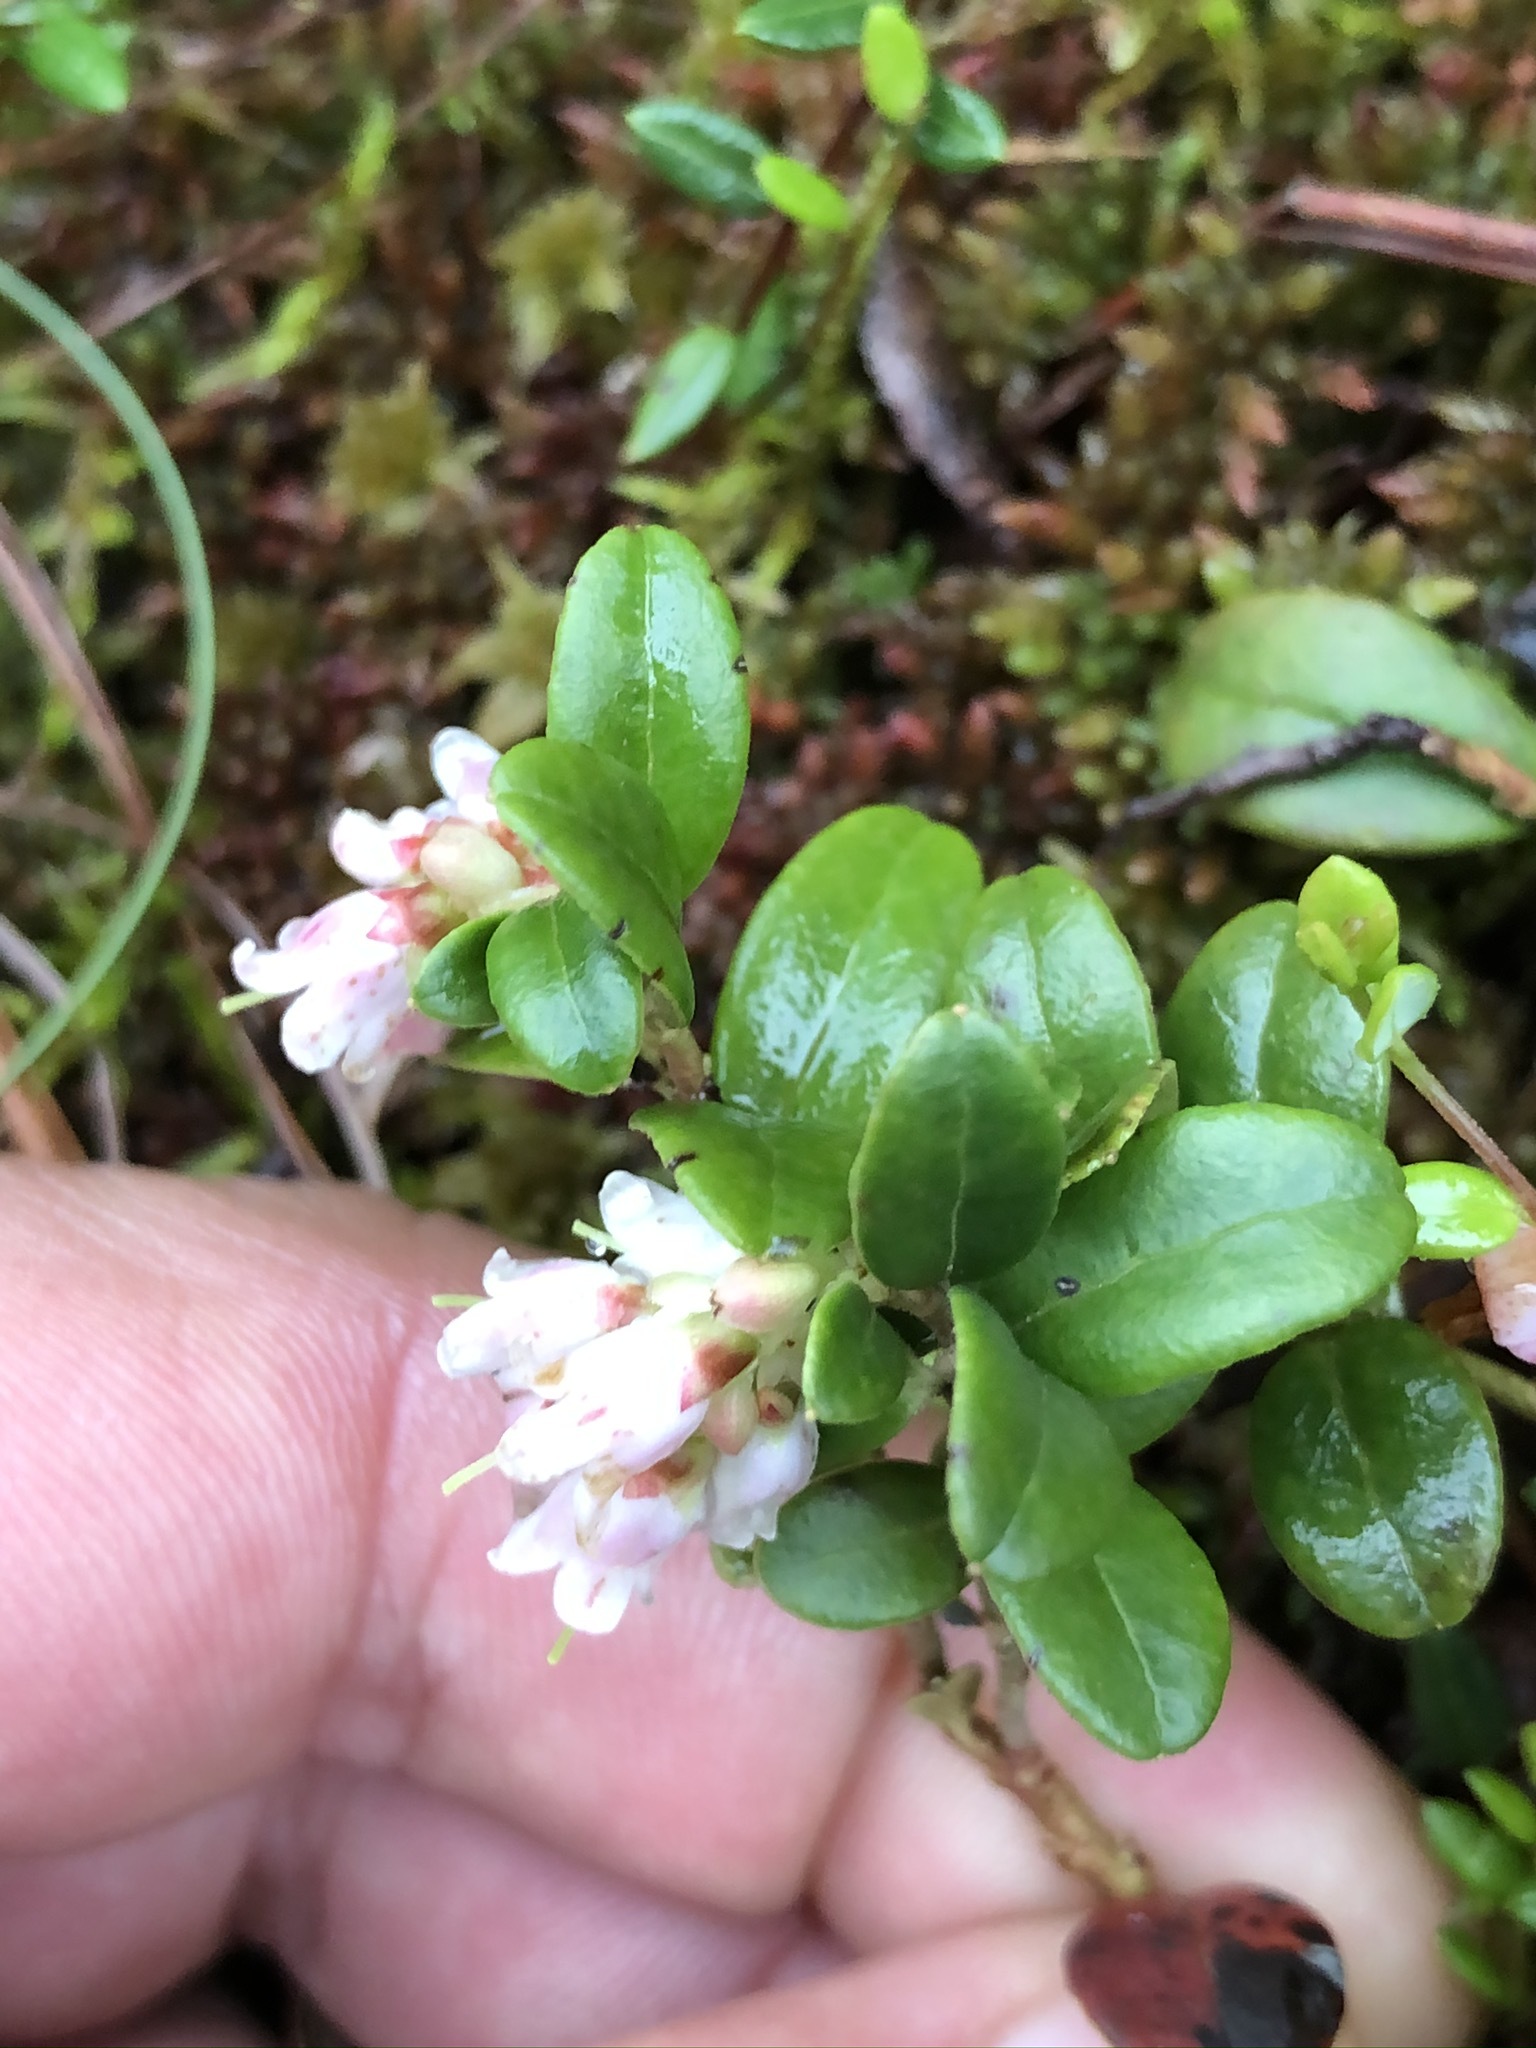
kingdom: Plantae
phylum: Tracheophyta
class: Magnoliopsida
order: Ericales
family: Ericaceae
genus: Vaccinium
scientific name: Vaccinium vitis-idaea
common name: Cowberry
